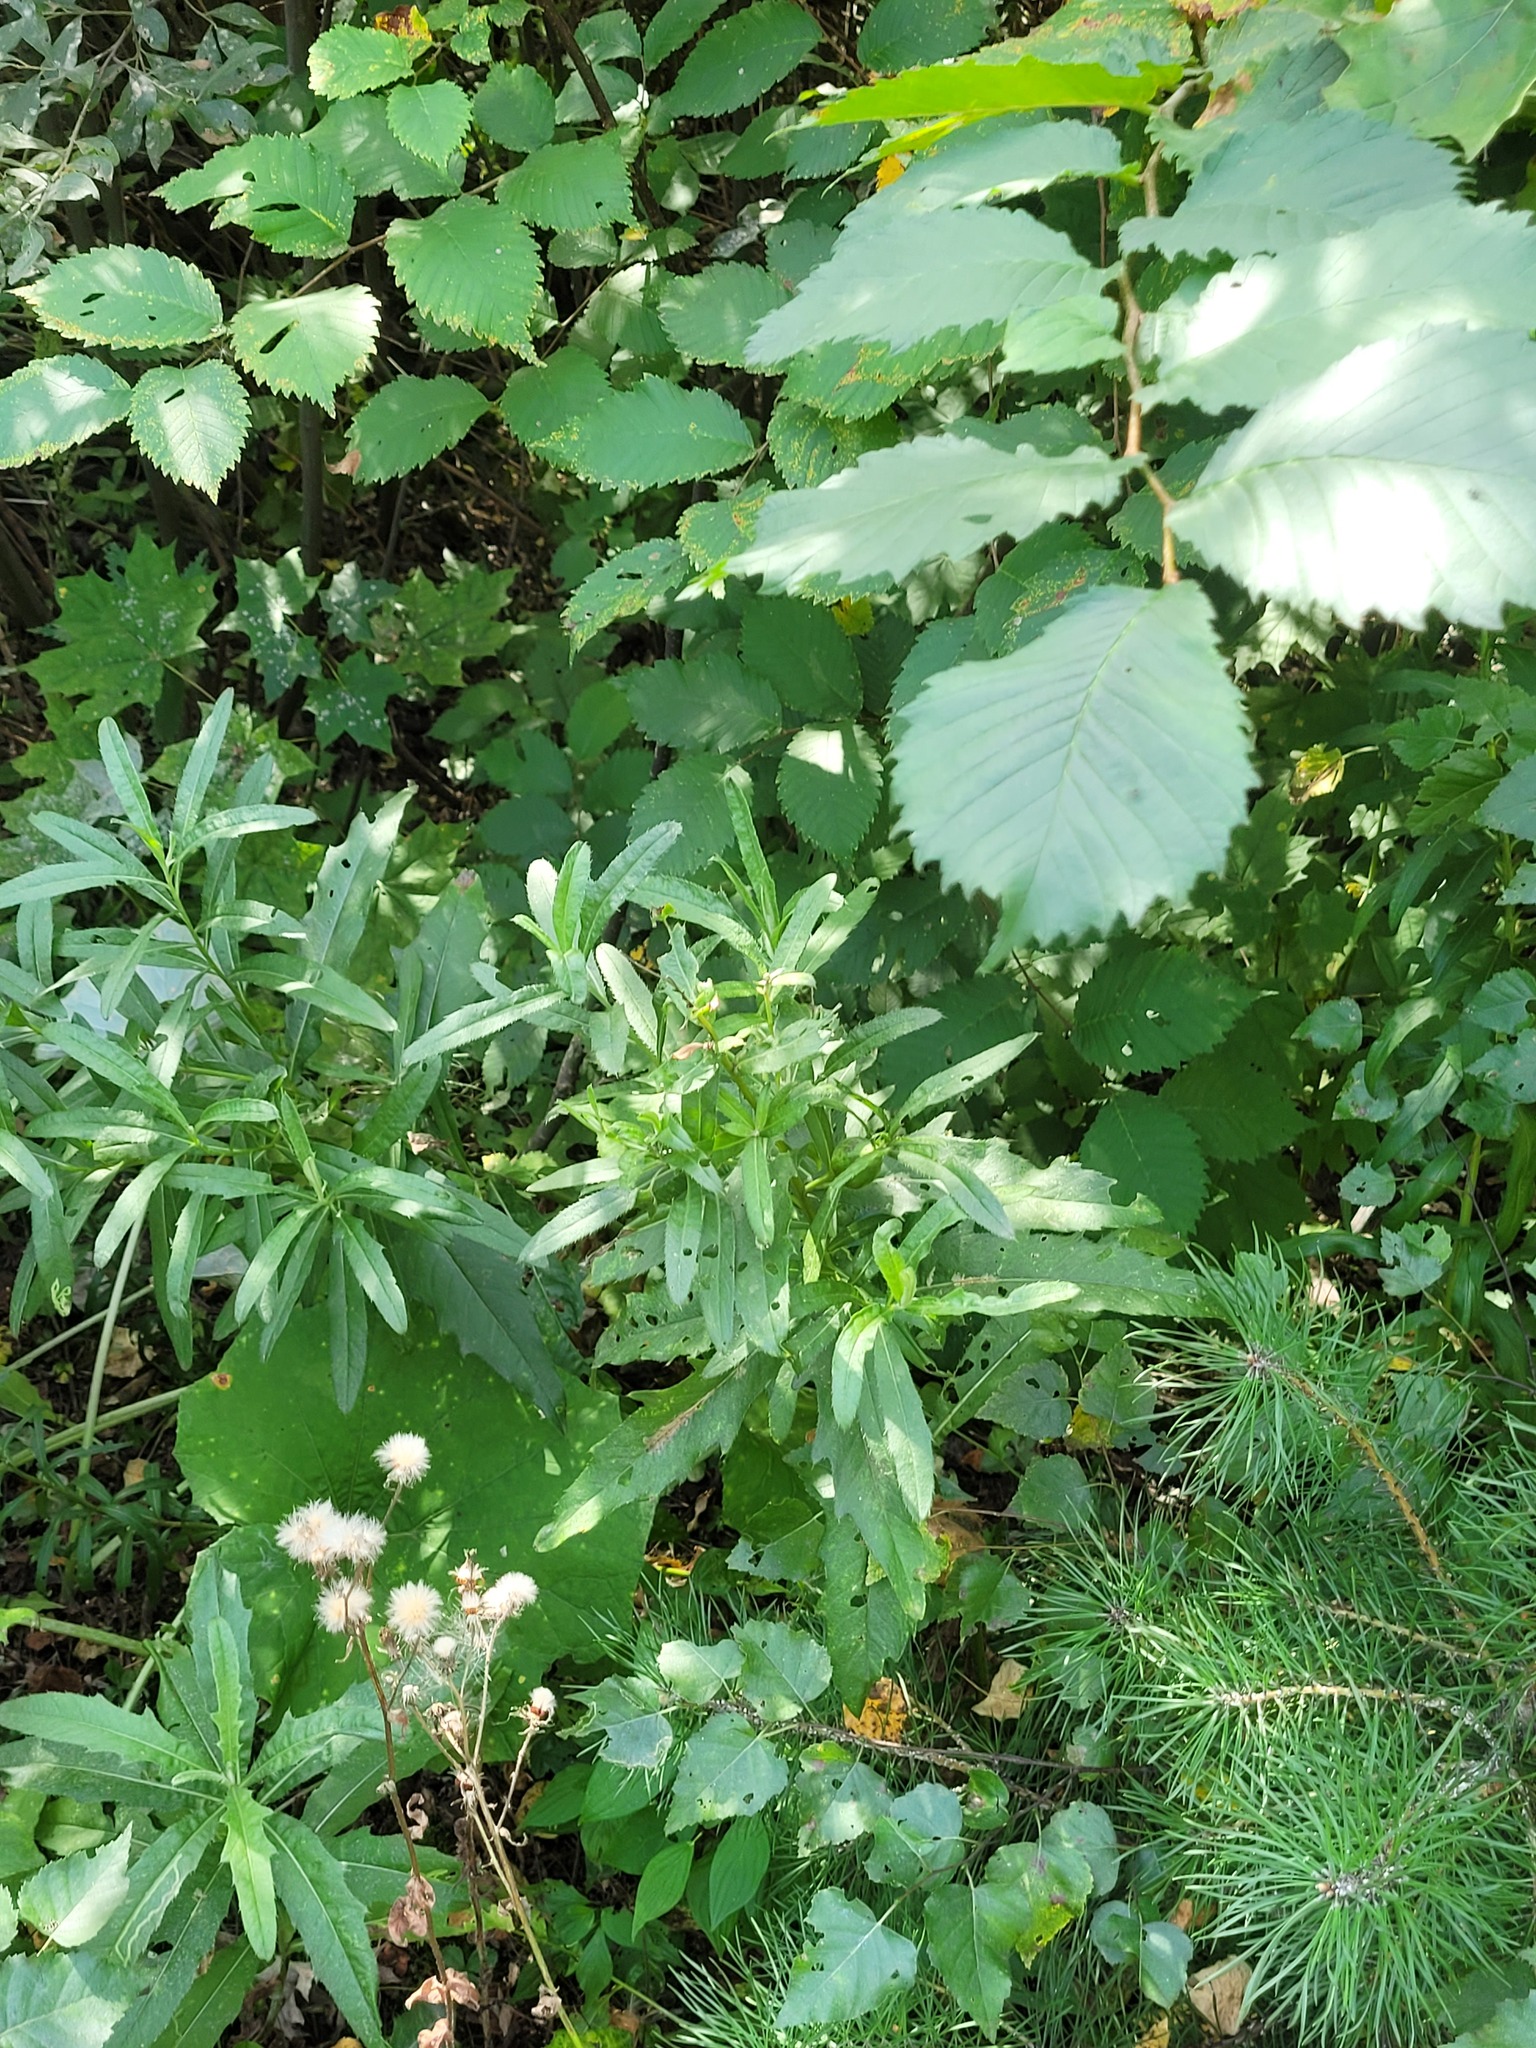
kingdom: Plantae
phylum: Tracheophyta
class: Magnoliopsida
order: Asterales
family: Asteraceae
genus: Cirsium
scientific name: Cirsium arvense
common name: Creeping thistle
